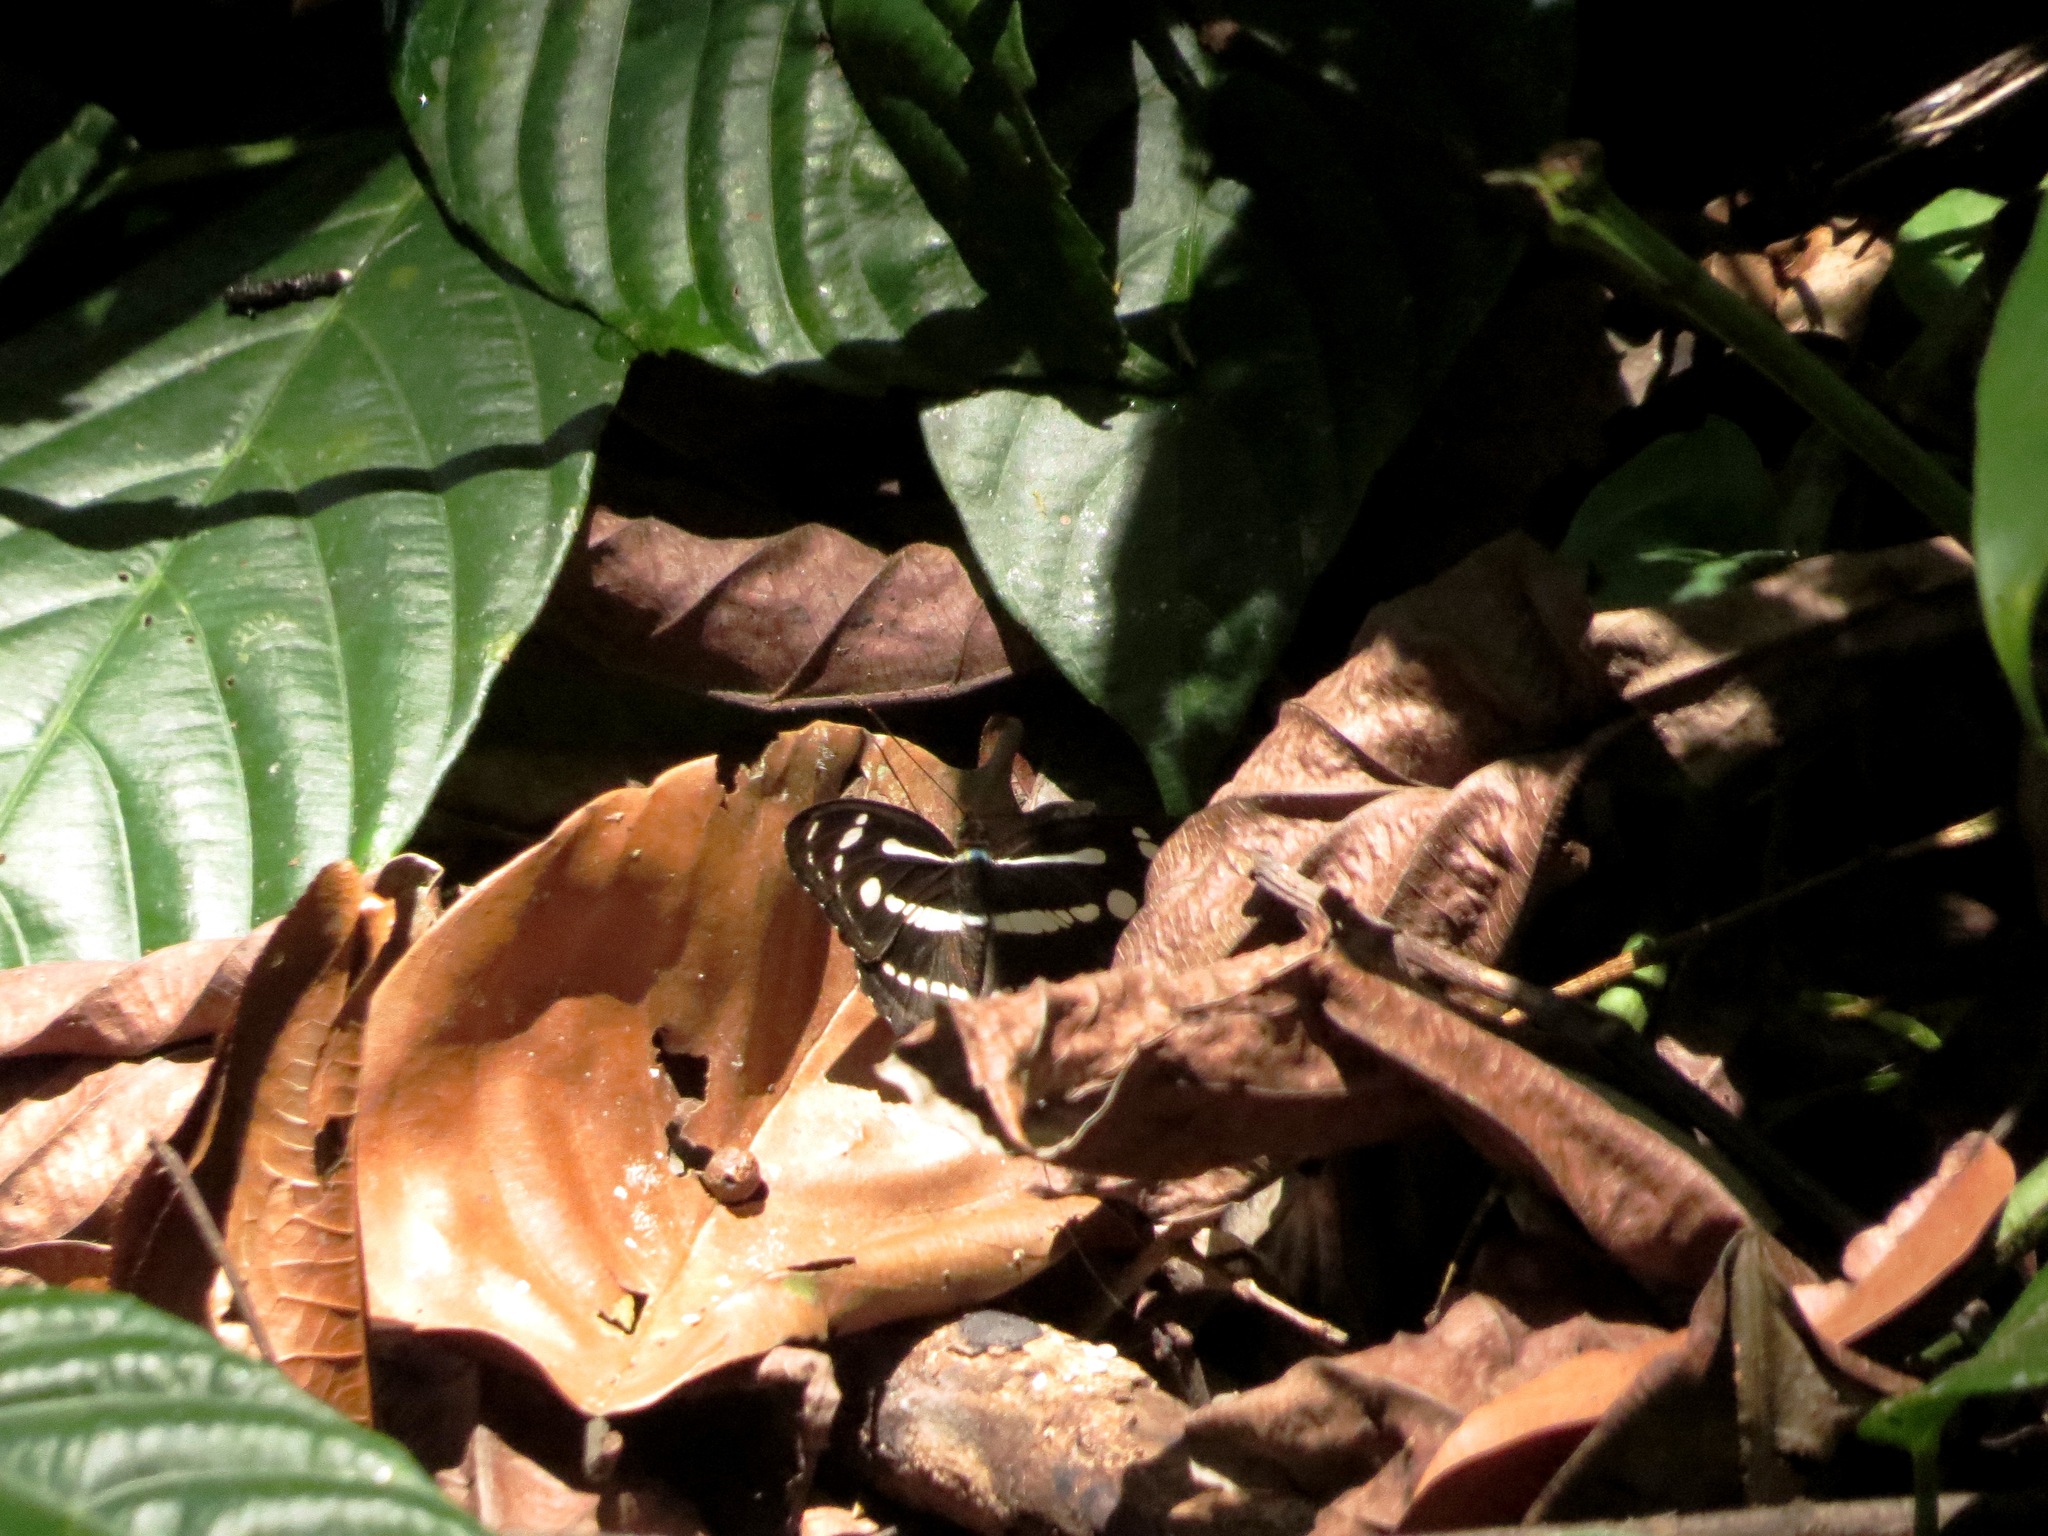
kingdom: Animalia
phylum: Arthropoda
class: Insecta
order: Lepidoptera
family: Nymphalidae
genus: Parathyma
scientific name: Parathyma pravara
